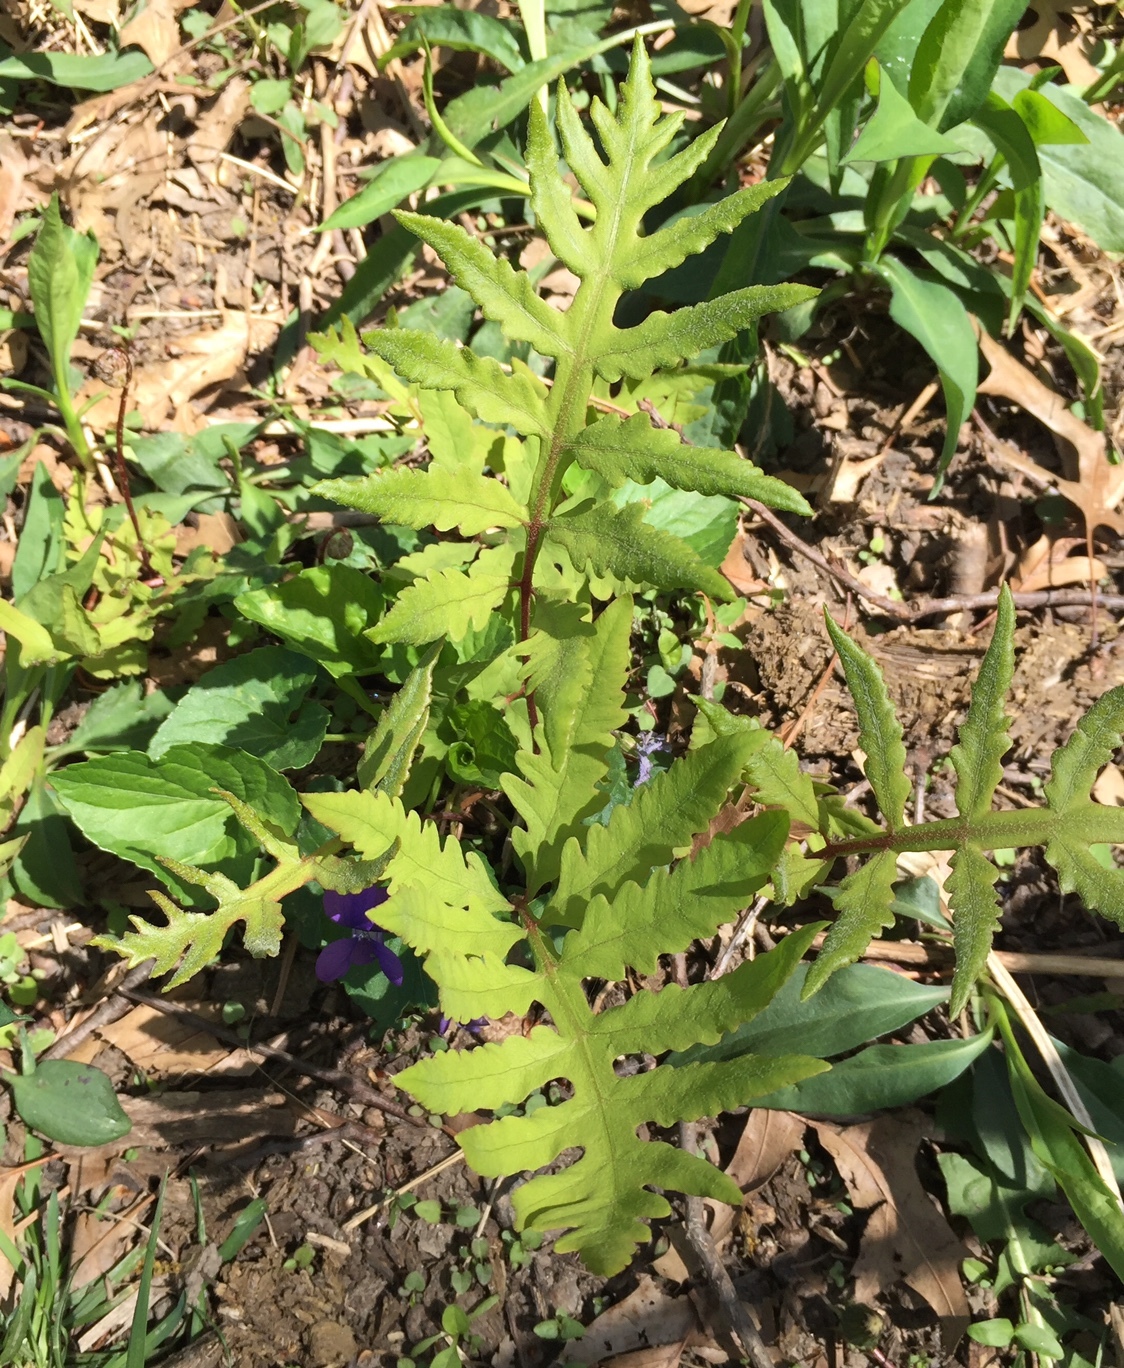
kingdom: Plantae
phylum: Tracheophyta
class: Polypodiopsida
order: Polypodiales
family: Onocleaceae
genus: Onoclea
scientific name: Onoclea sensibilis
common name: Sensitive fern
